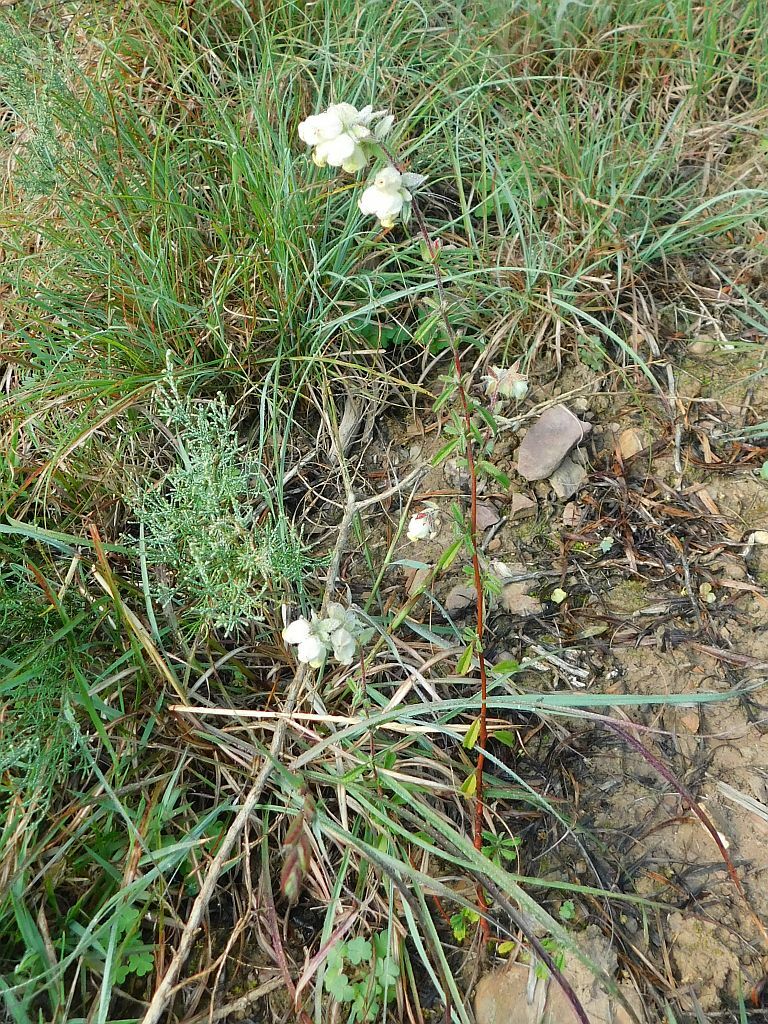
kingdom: Plantae
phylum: Tracheophyta
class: Magnoliopsida
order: Malvales
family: Malvaceae
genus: Hermannia
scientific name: Hermannia hyssopifolia
